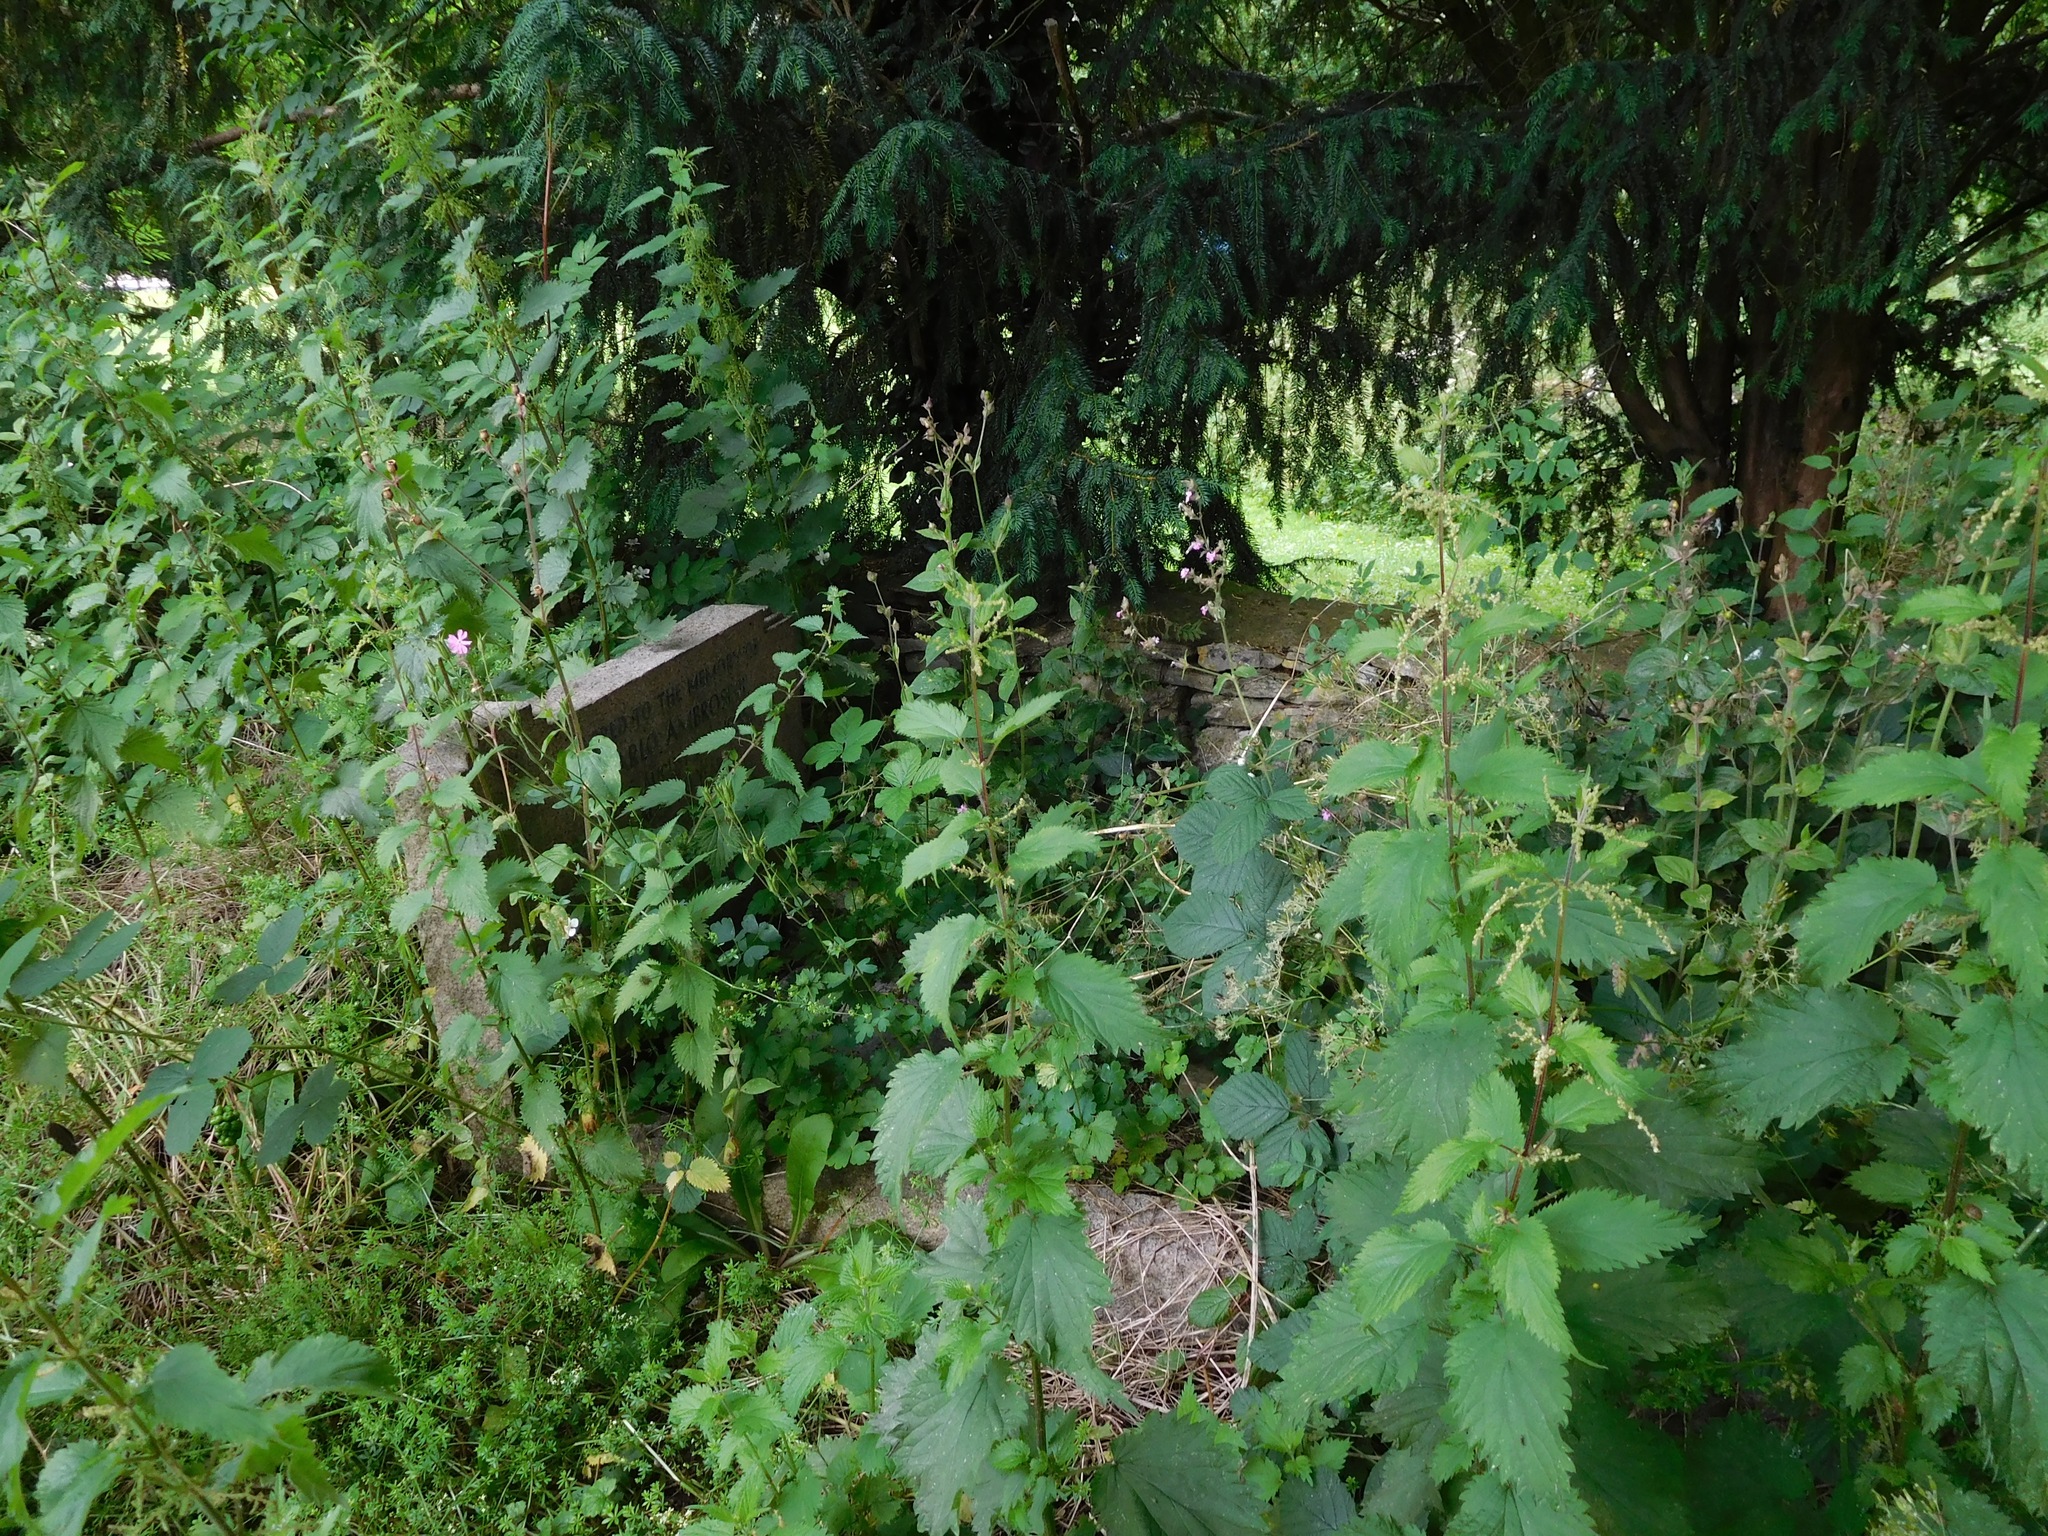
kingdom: Plantae
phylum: Tracheophyta
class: Magnoliopsida
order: Rosales
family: Urticaceae
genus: Urtica
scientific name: Urtica dioica
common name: Common nettle
